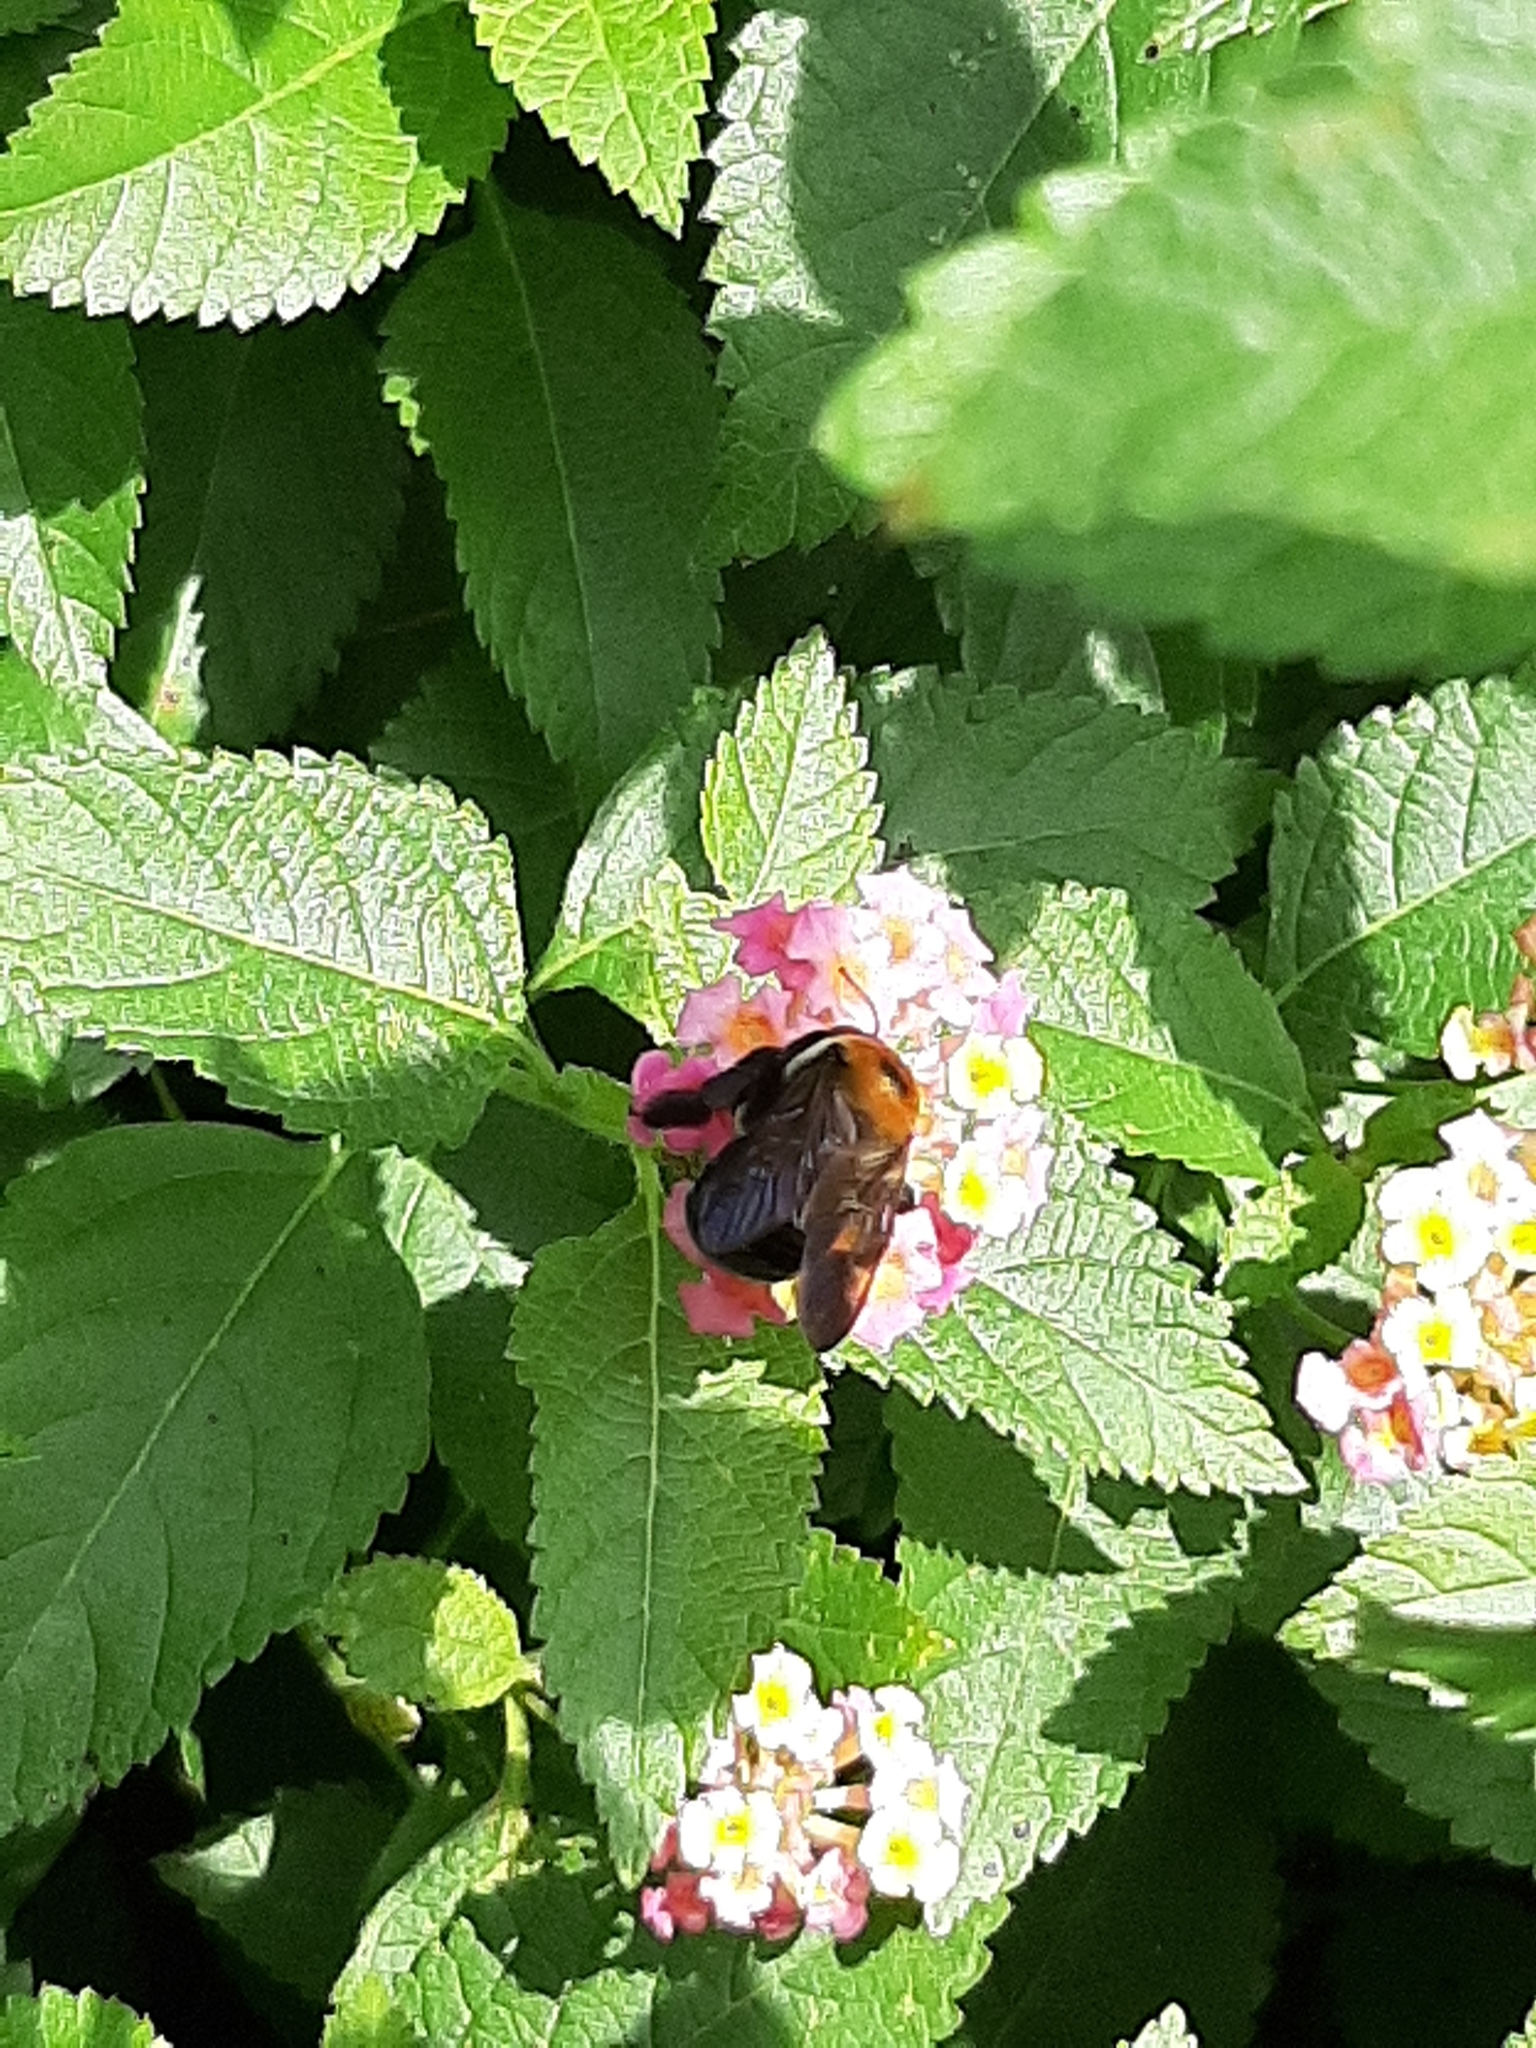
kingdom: Animalia
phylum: Arthropoda
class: Insecta
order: Hymenoptera
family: Apidae
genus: Xylocopa
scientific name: Xylocopa virginica
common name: Carpenter bee
